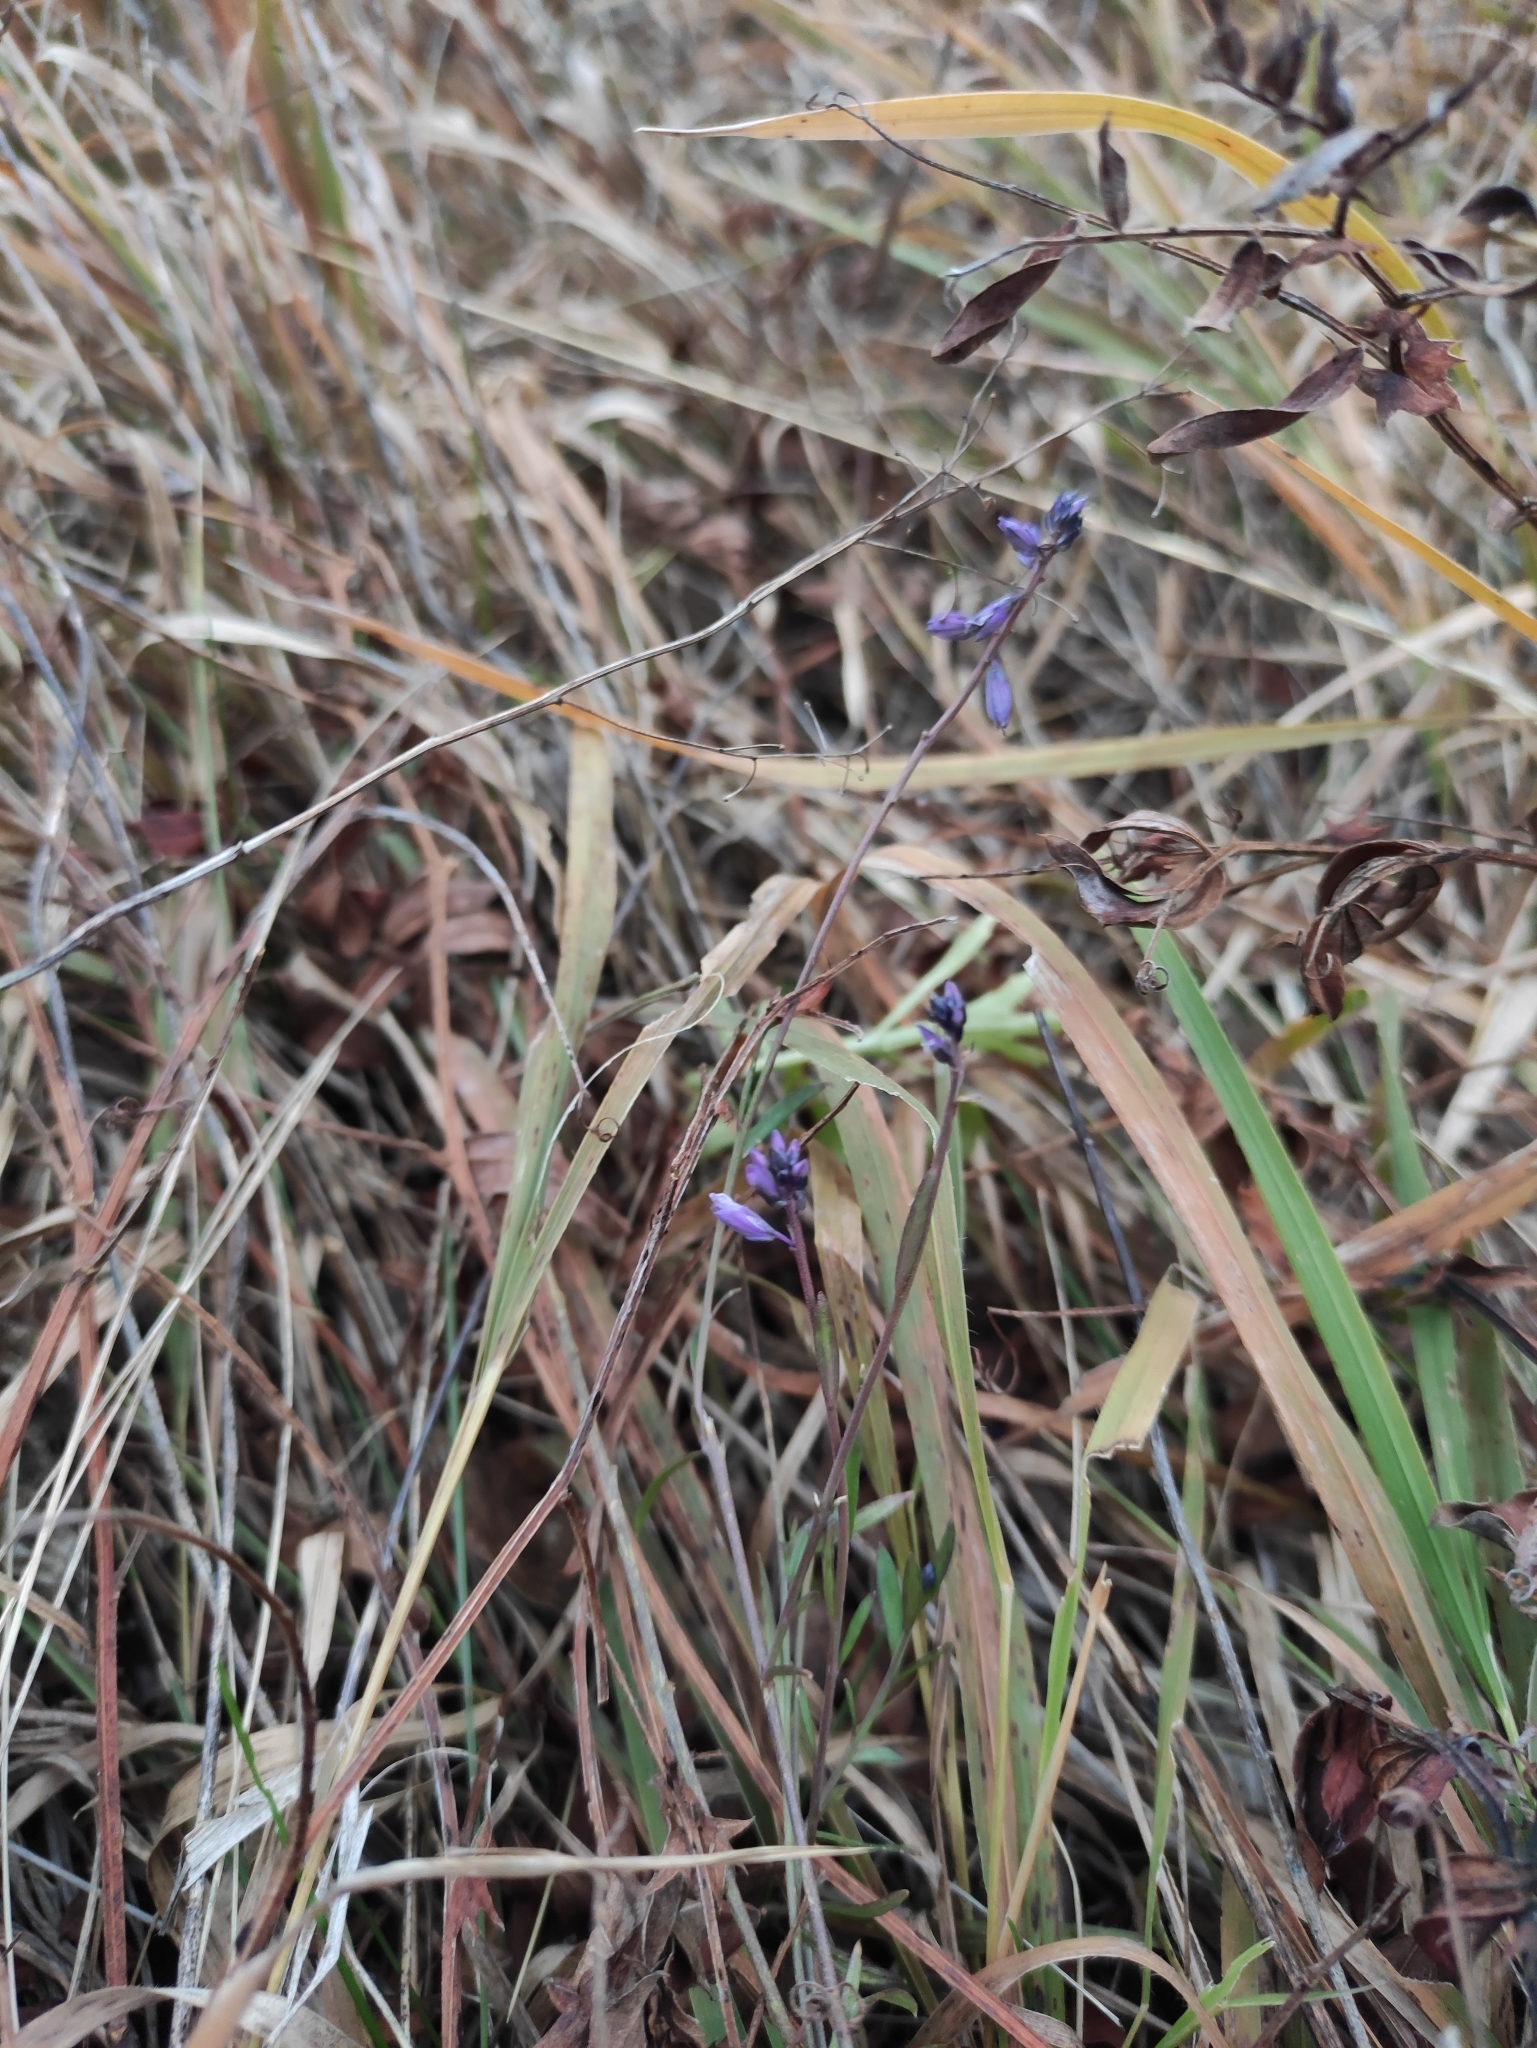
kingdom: Plantae
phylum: Tracheophyta
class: Magnoliopsida
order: Fabales
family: Polygalaceae
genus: Polygala
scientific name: Polygala comosa
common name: Tufted milkwort
